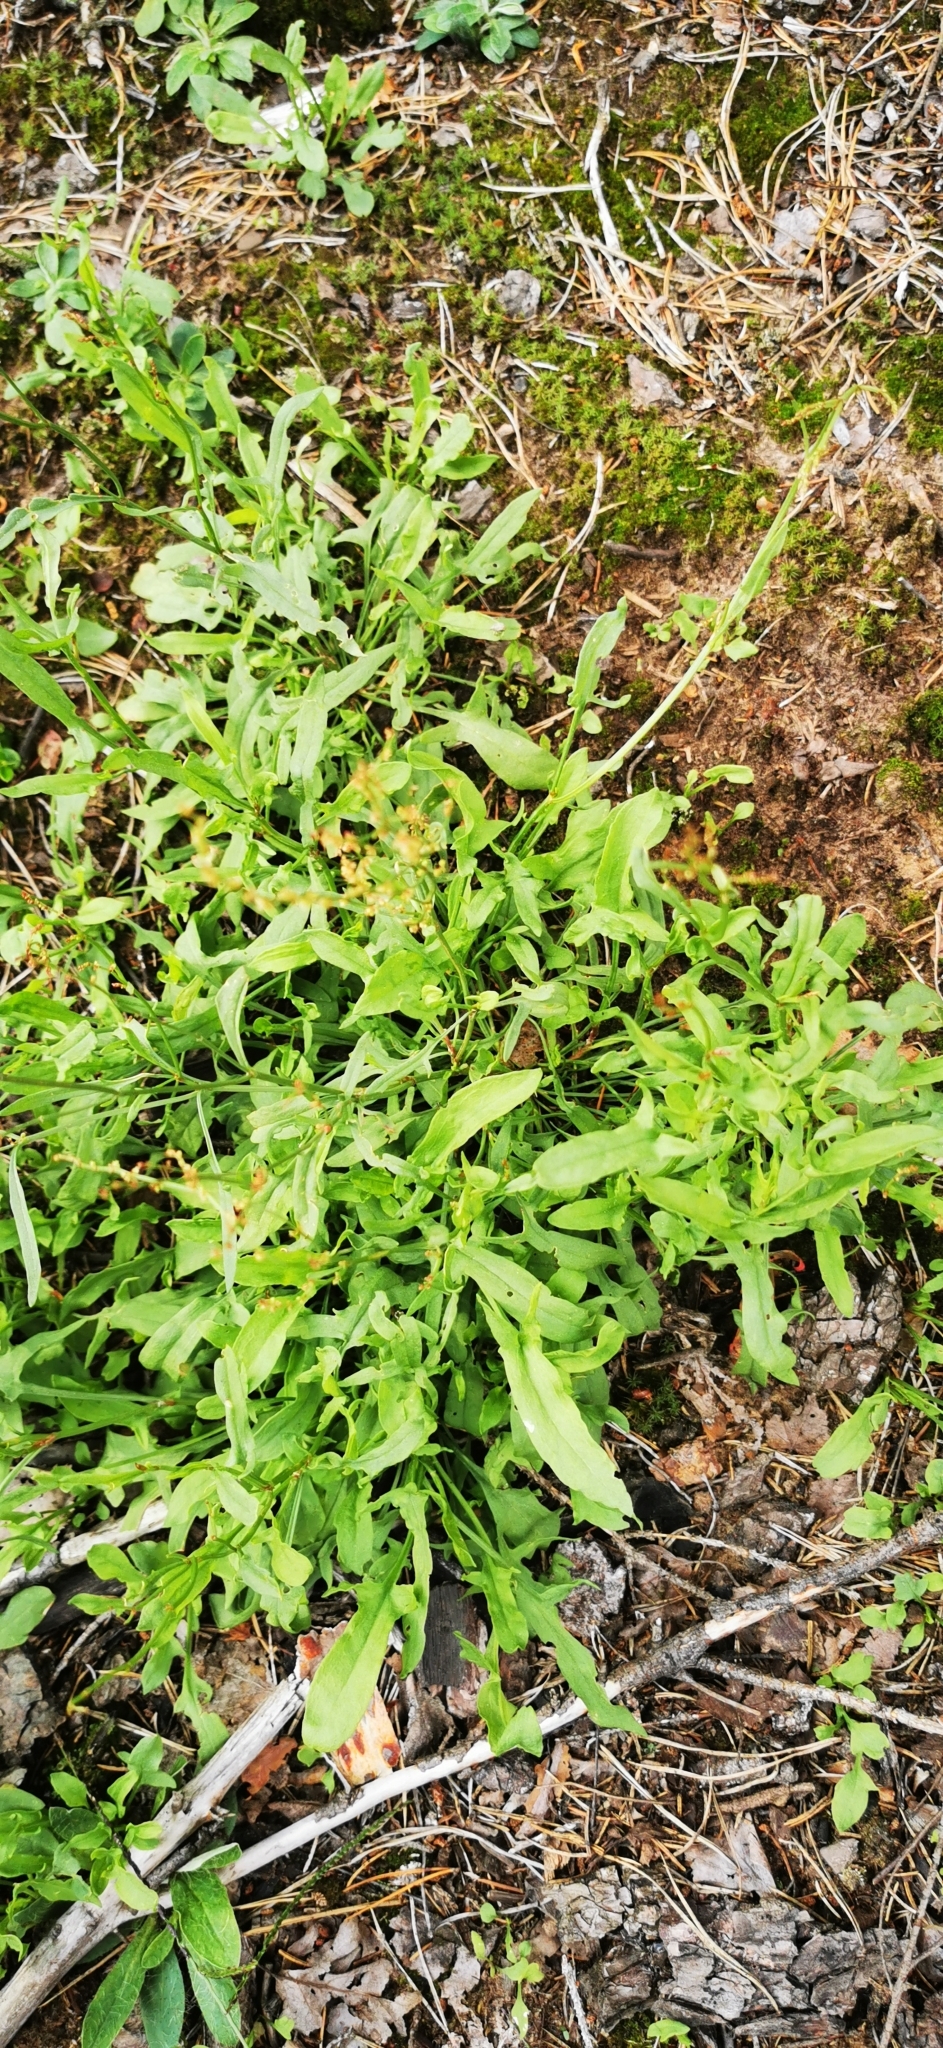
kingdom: Plantae
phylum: Tracheophyta
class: Magnoliopsida
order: Caryophyllales
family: Polygonaceae
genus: Rumex
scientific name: Rumex acetosella
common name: Common sheep sorrel
